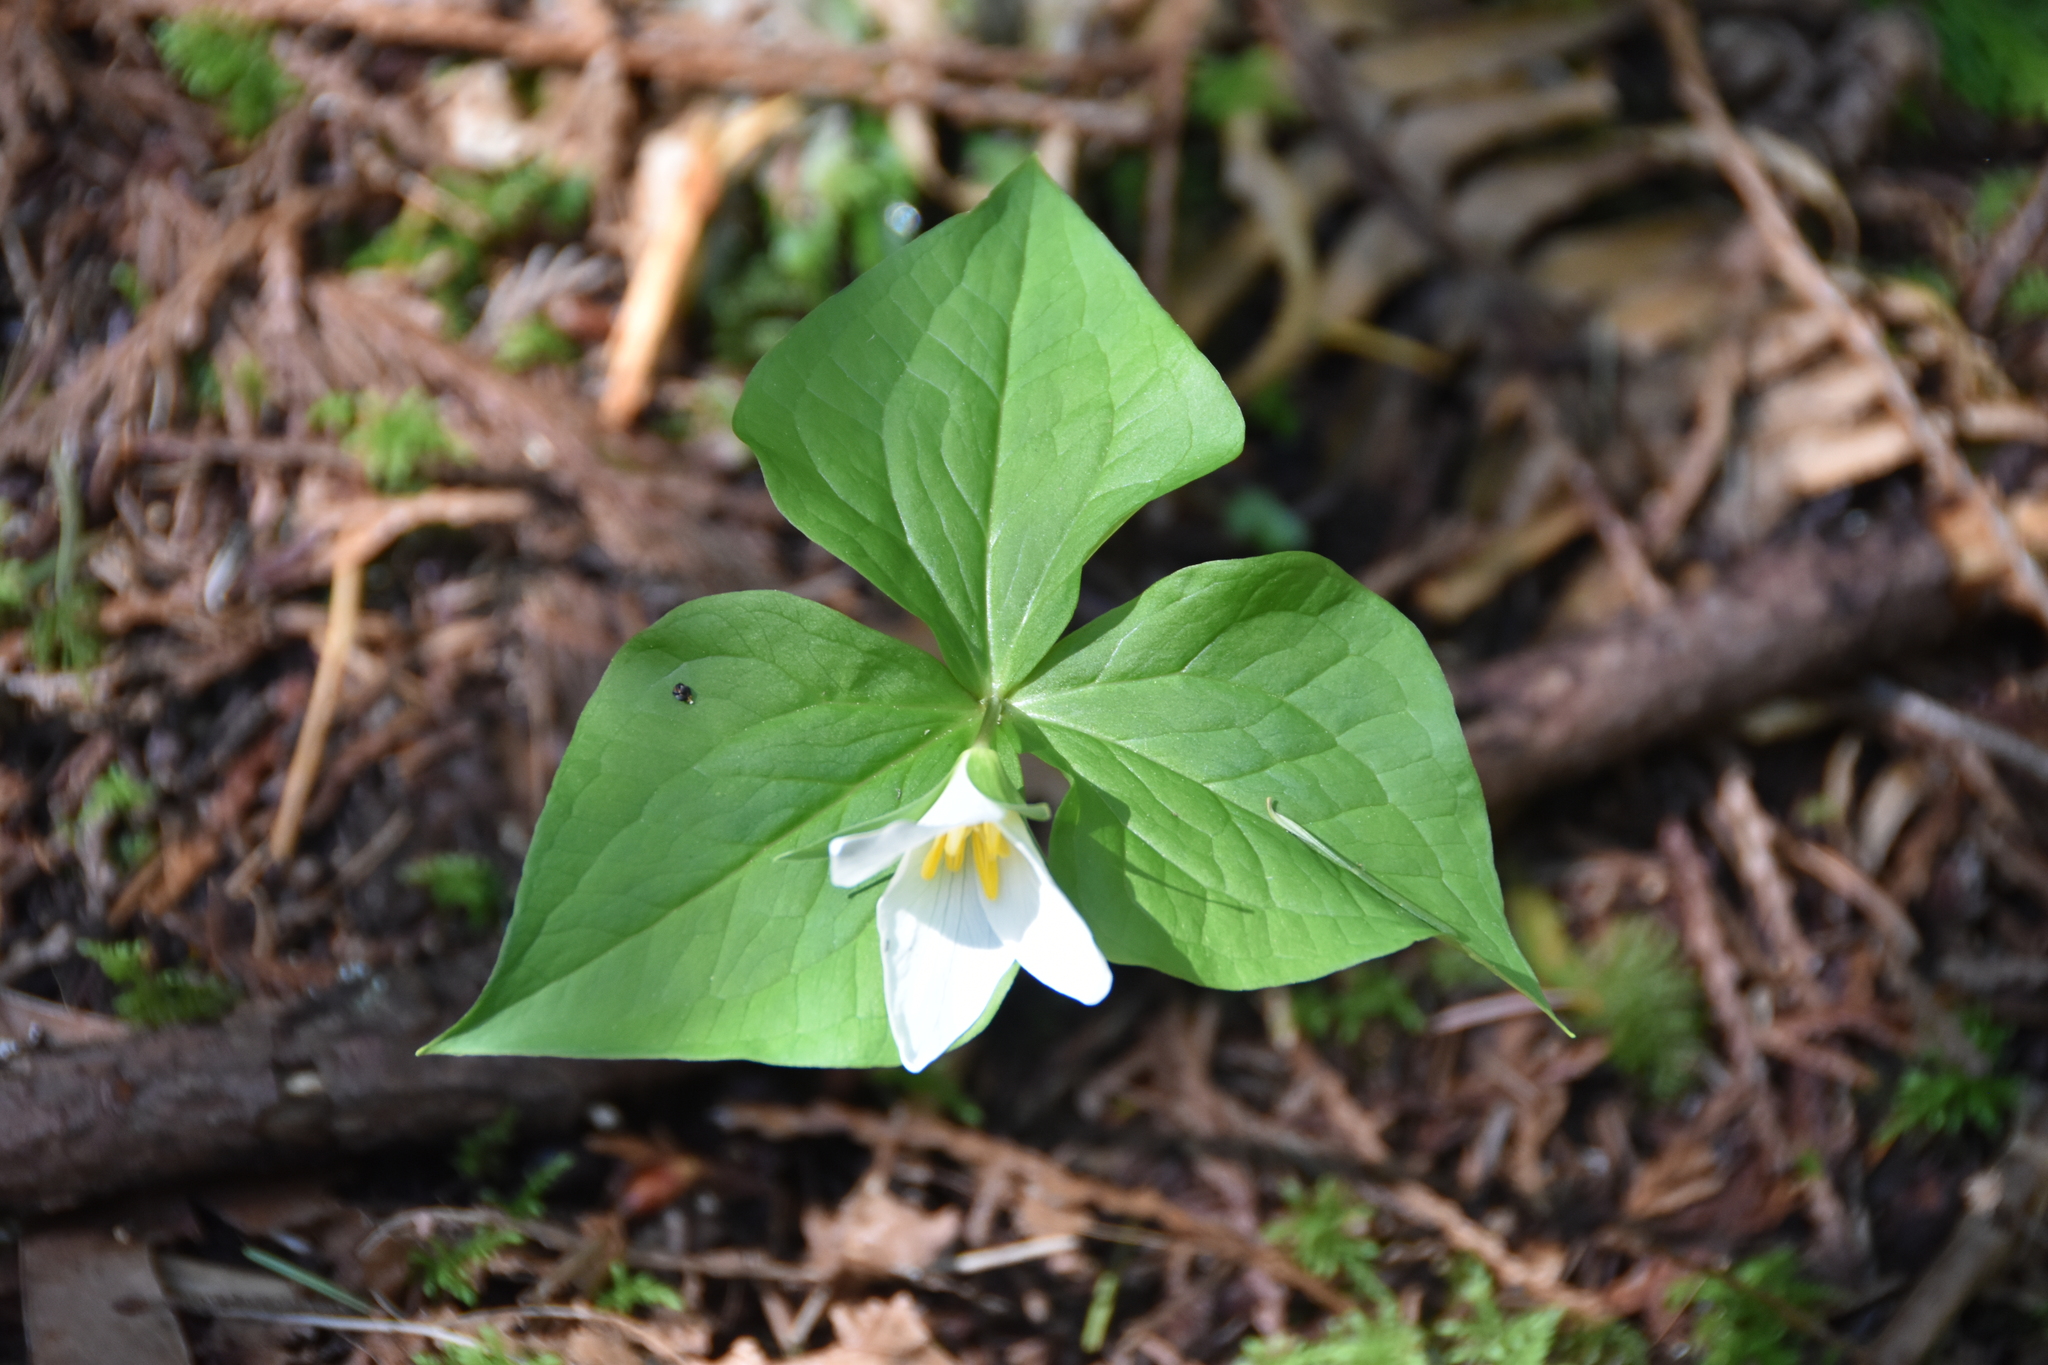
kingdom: Plantae
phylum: Tracheophyta
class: Liliopsida
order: Liliales
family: Melanthiaceae
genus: Trillium
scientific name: Trillium ovatum
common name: Pacific trillium
